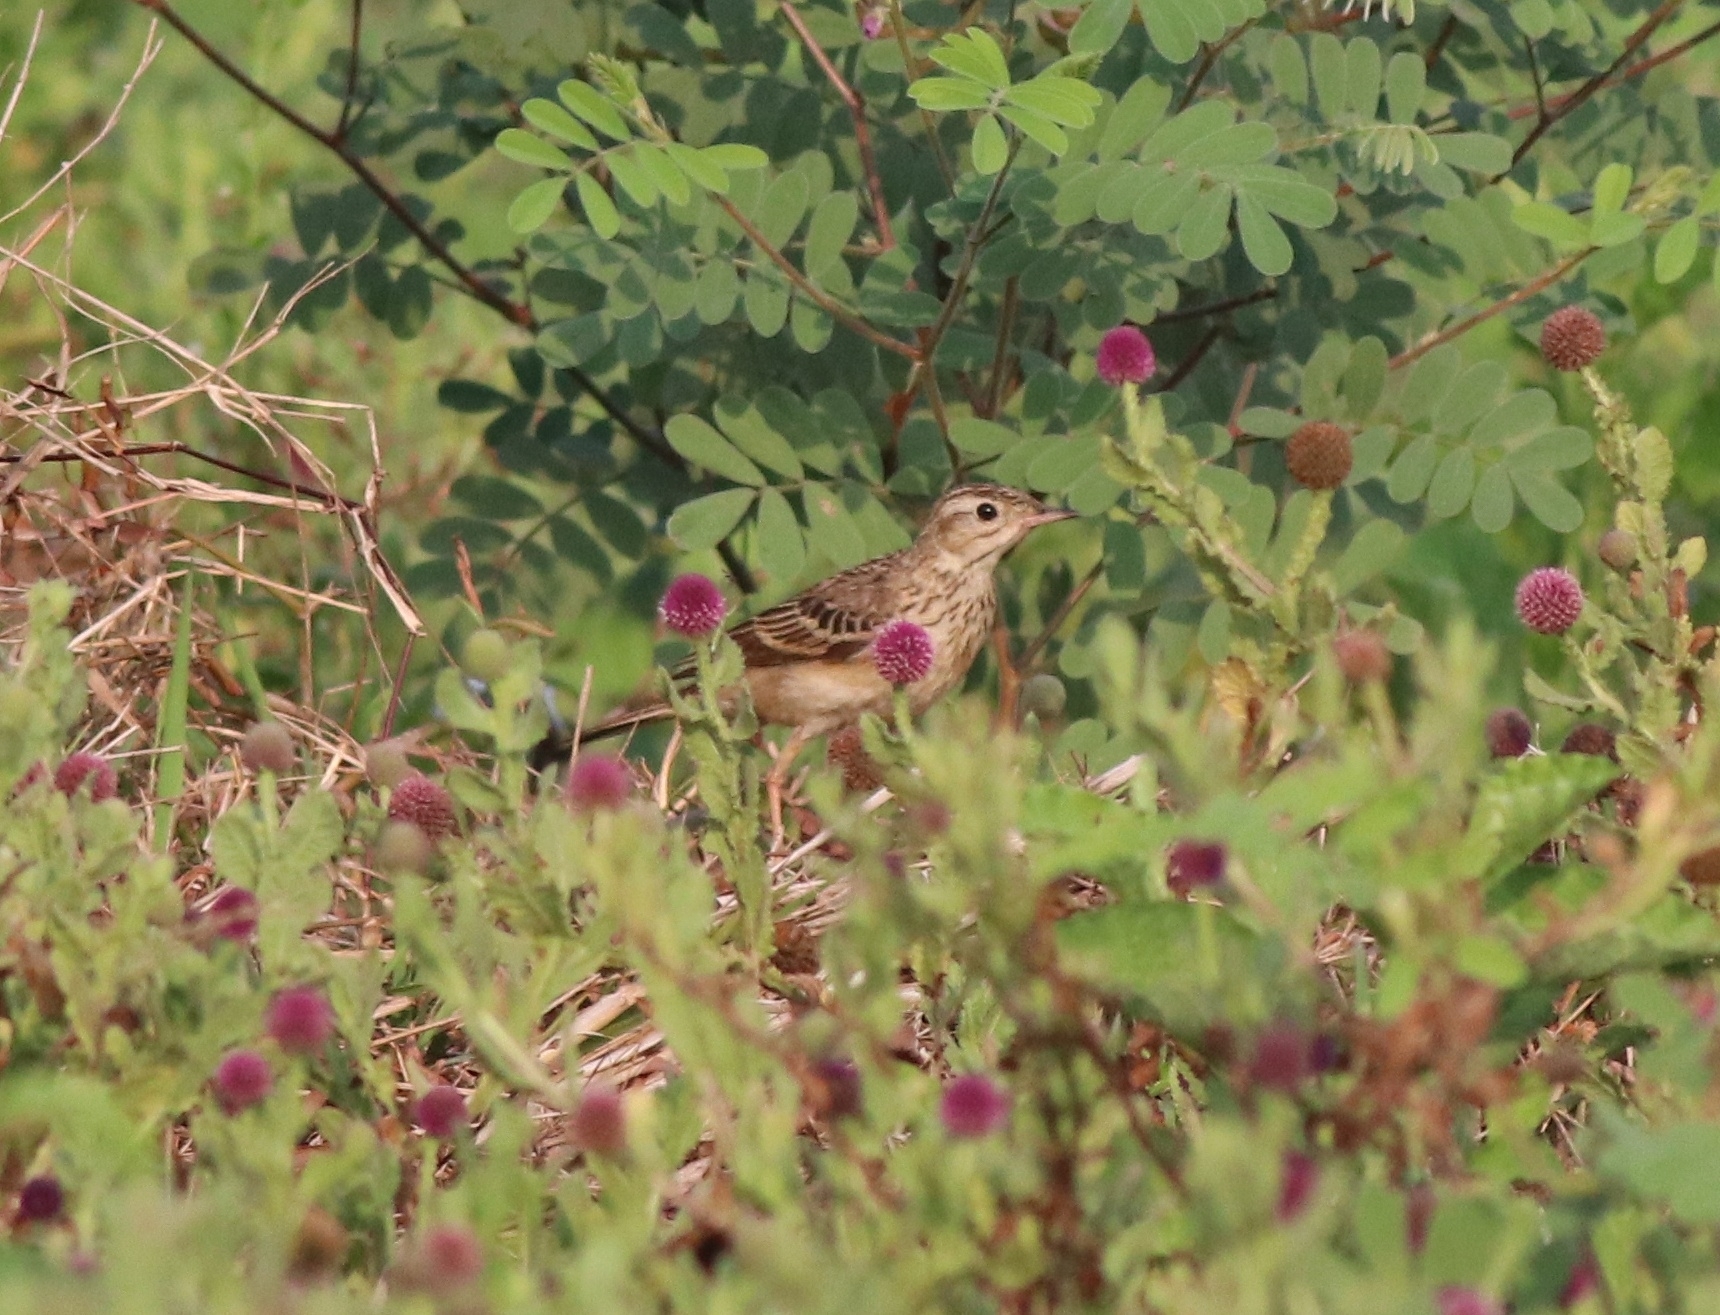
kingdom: Animalia
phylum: Chordata
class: Aves
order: Passeriformes
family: Motacillidae
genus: Anthus
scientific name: Anthus godlewskii
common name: Blyth's pipit
